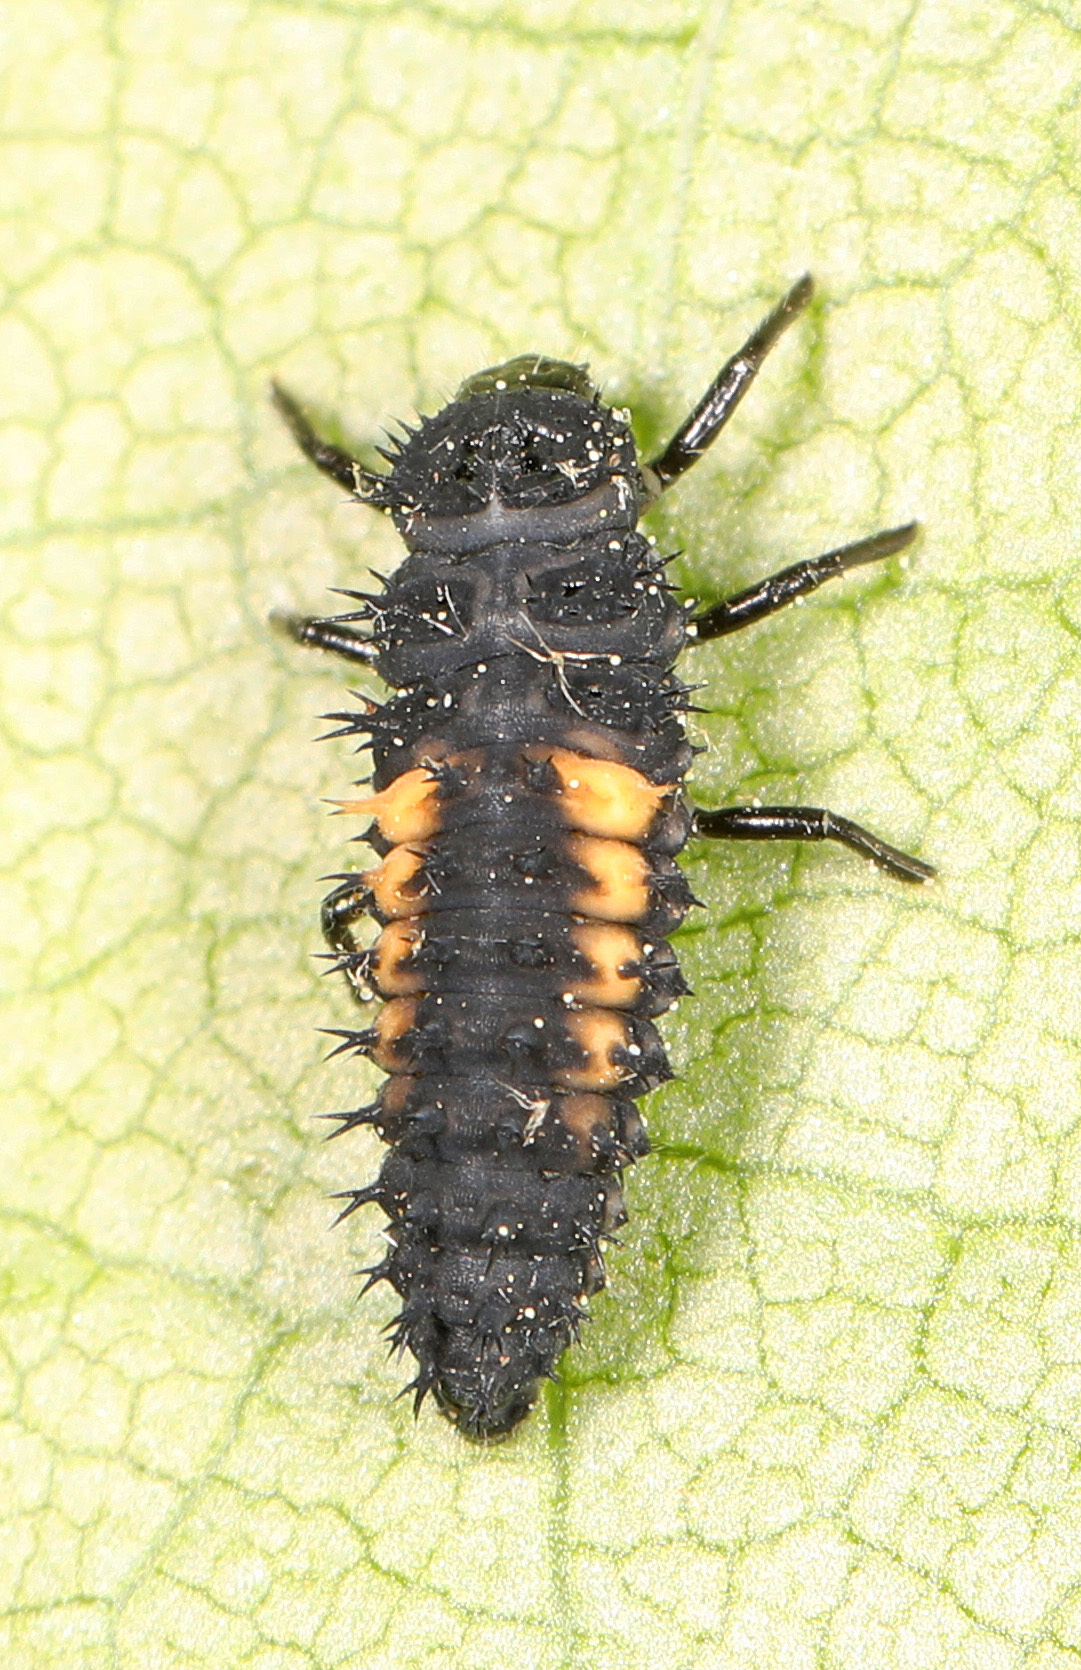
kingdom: Animalia
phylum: Arthropoda
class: Insecta
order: Coleoptera
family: Coccinellidae
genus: Harmonia
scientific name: Harmonia axyridis
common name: Harlequin ladybird
